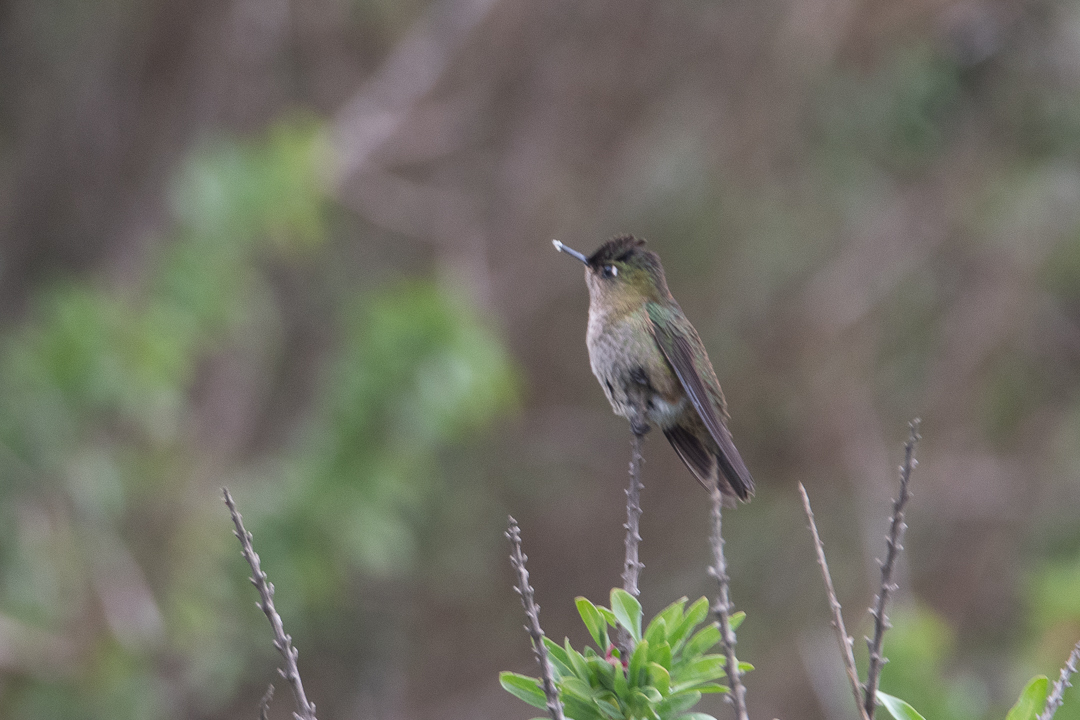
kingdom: Animalia
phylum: Chordata
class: Aves
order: Apodiformes
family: Trochilidae
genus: Sephanoides
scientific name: Sephanoides sephaniodes
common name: Green-backed firecrown
